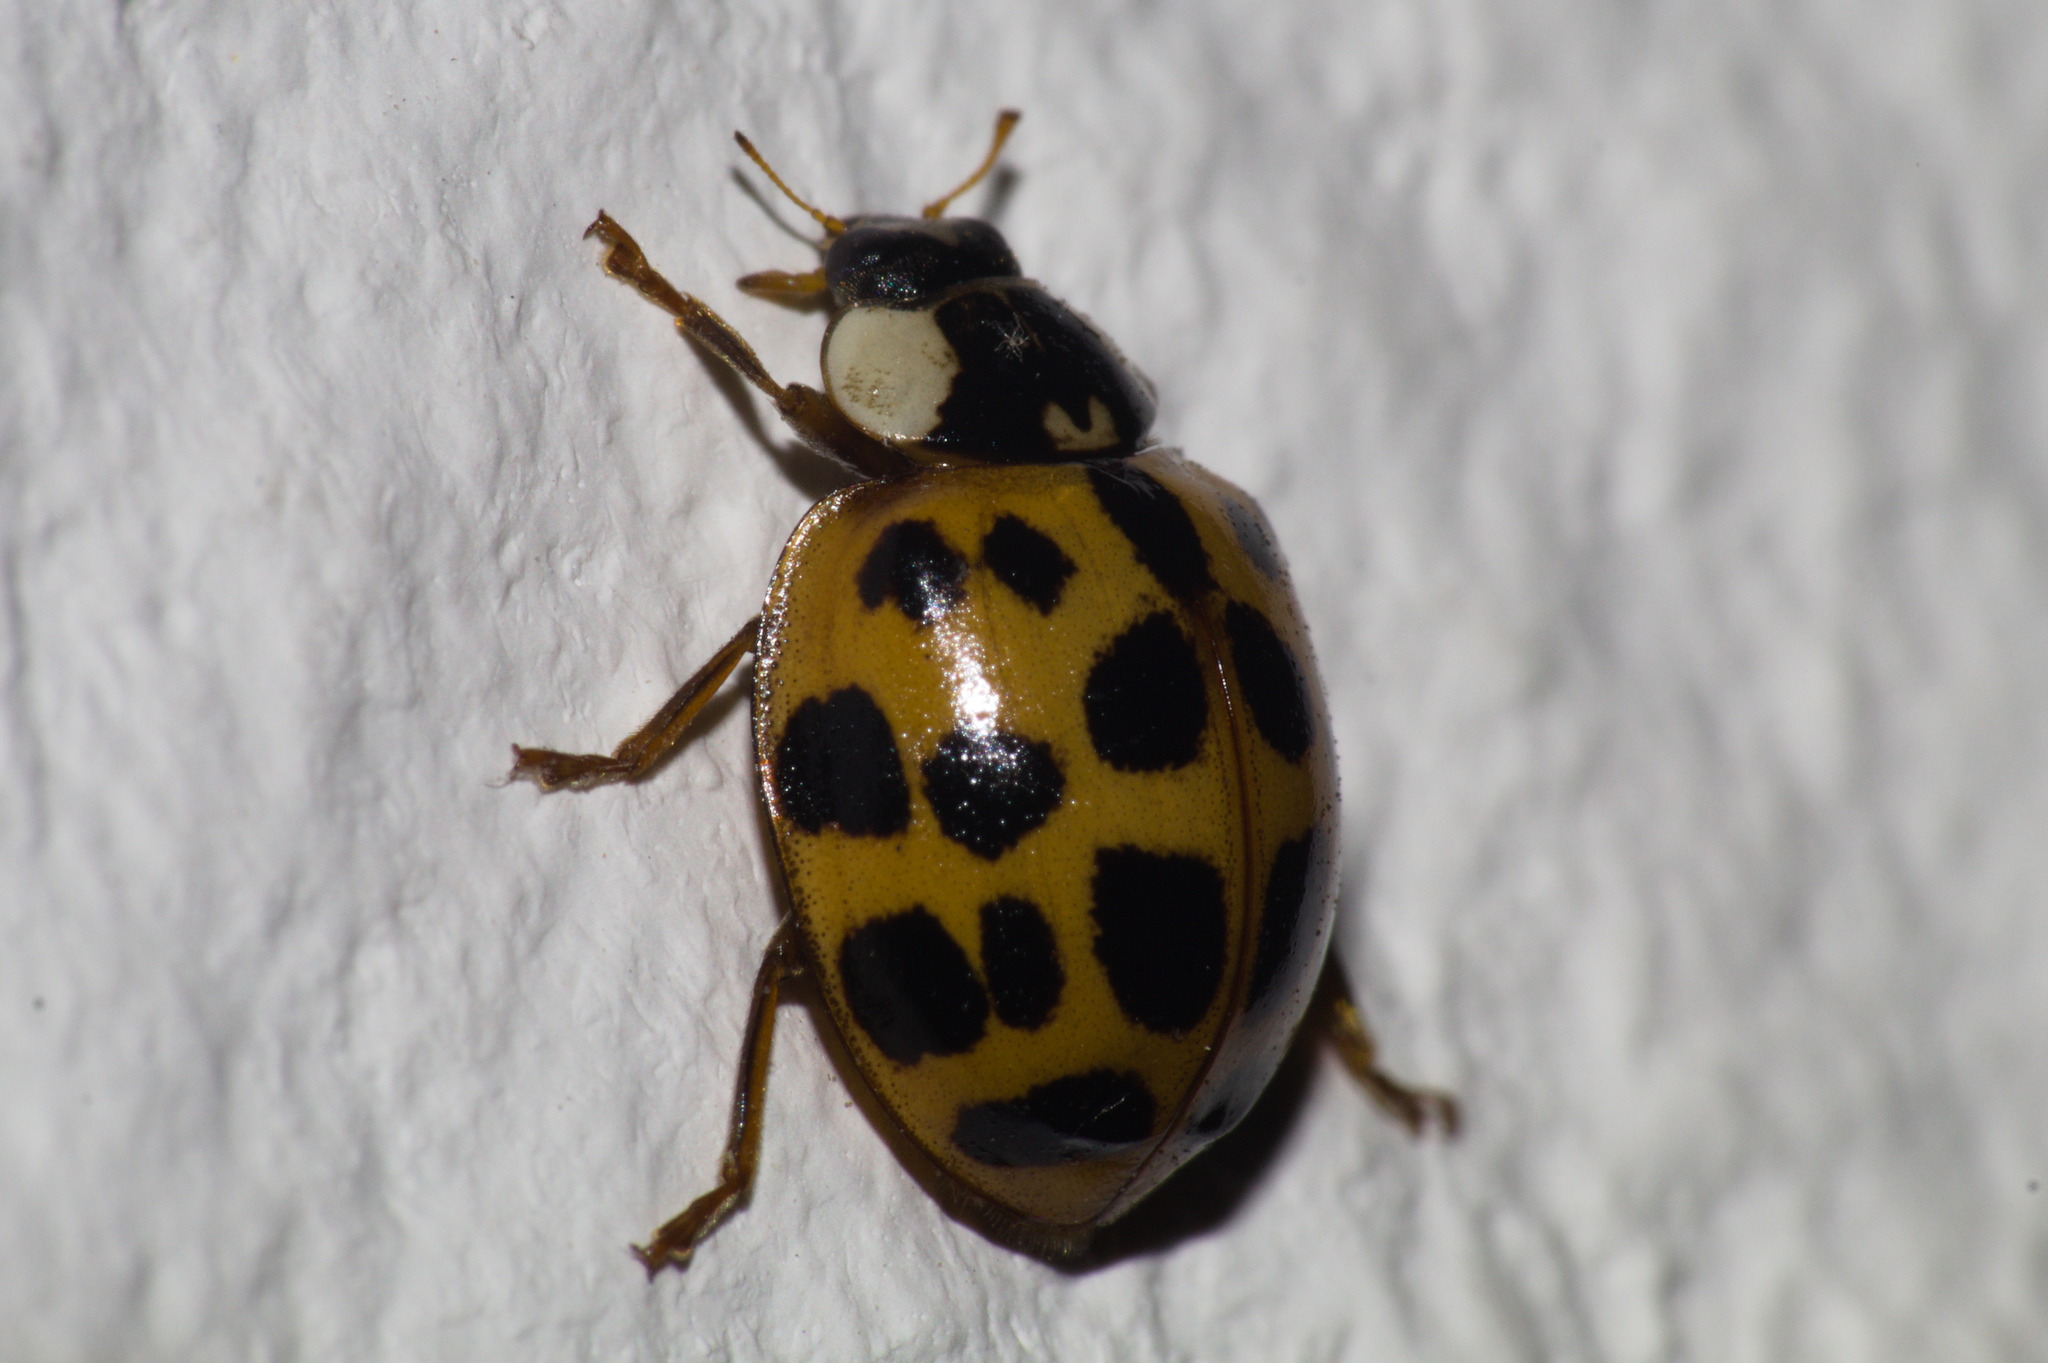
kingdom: Animalia
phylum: Arthropoda
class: Insecta
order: Coleoptera
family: Coccinellidae
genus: Harmonia
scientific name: Harmonia axyridis
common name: Harlequin ladybird
